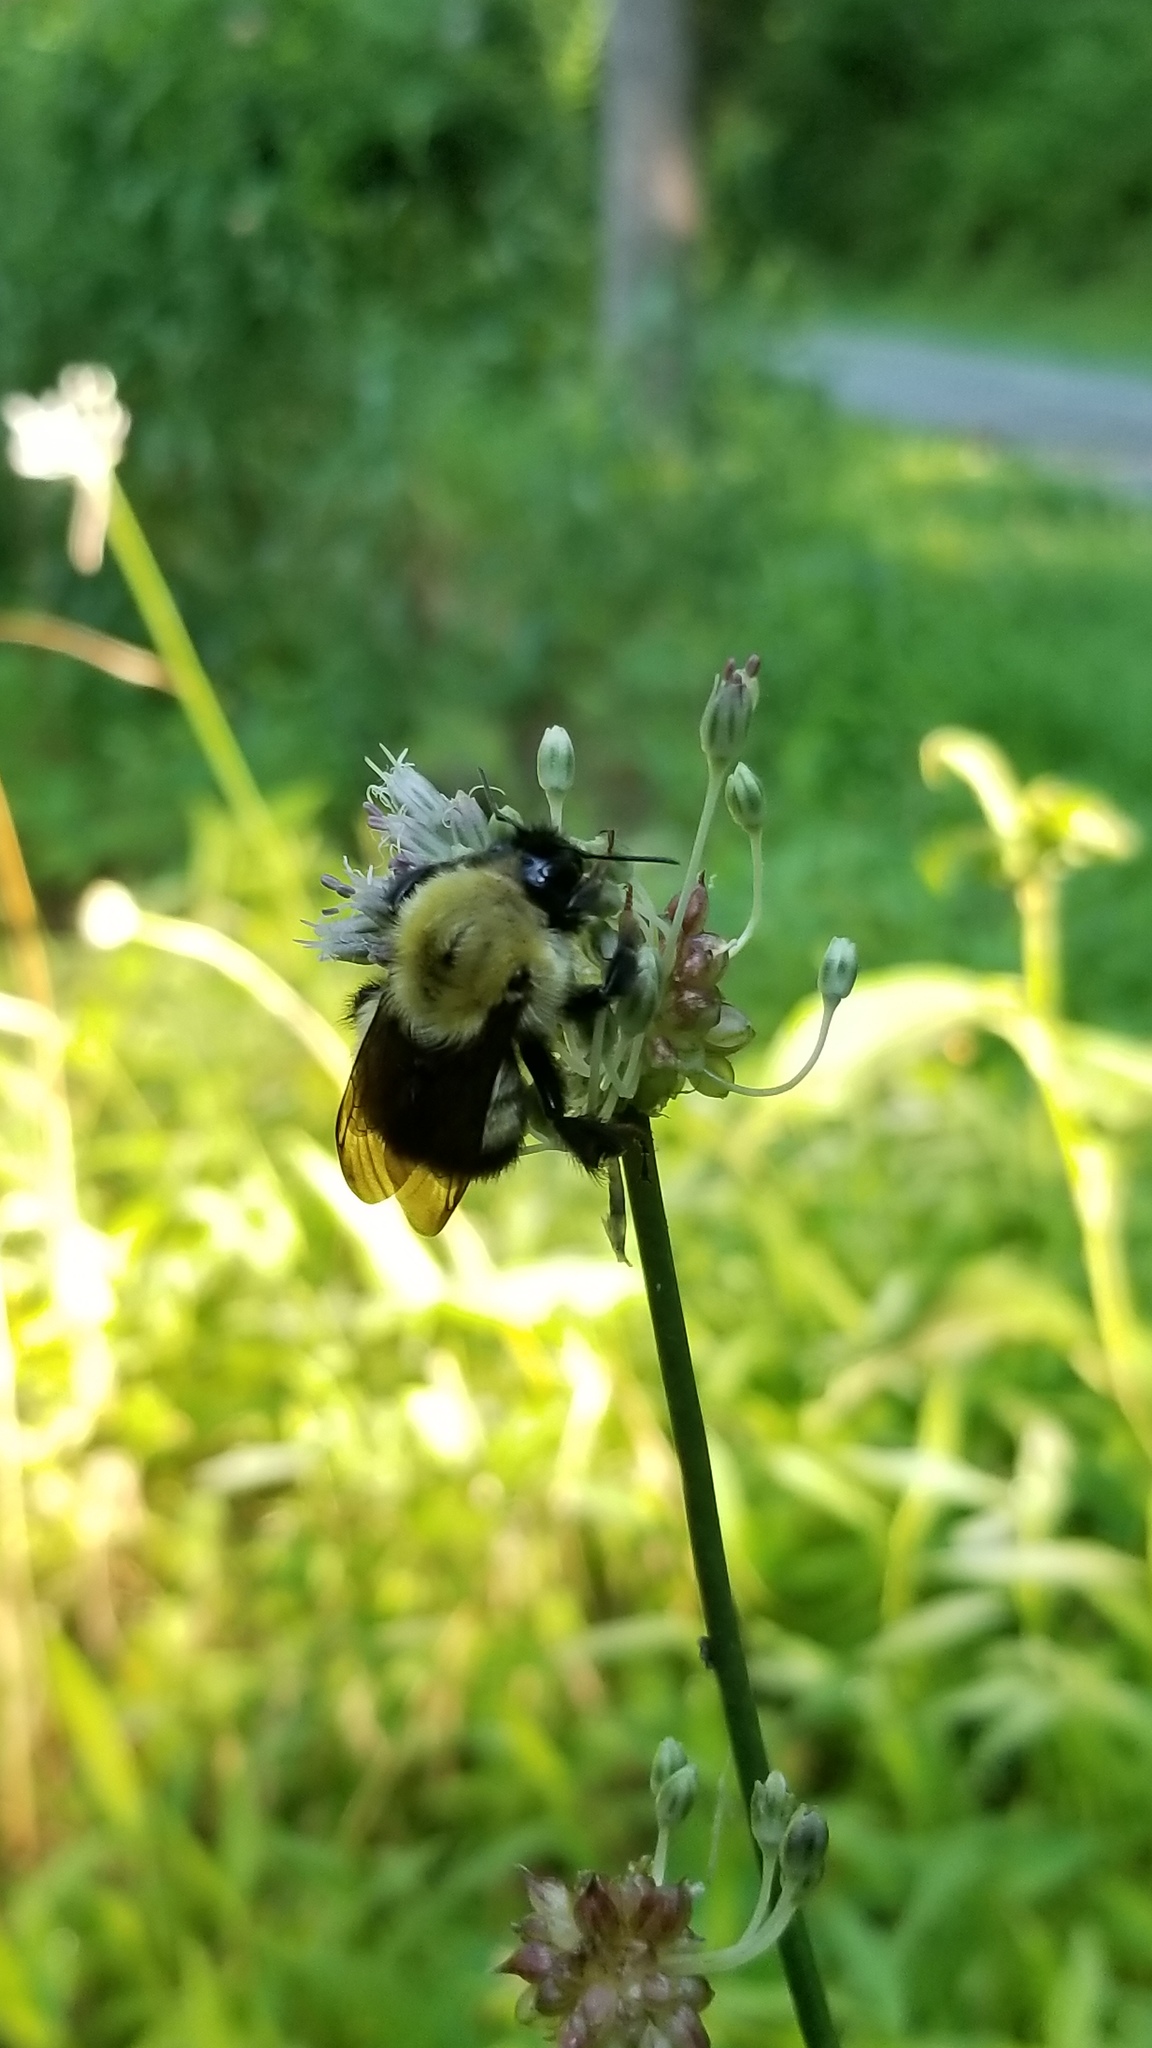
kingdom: Animalia
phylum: Arthropoda
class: Insecta
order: Hymenoptera
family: Apidae
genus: Bombus
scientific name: Bombus perplexus
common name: Confusing bumble bee
